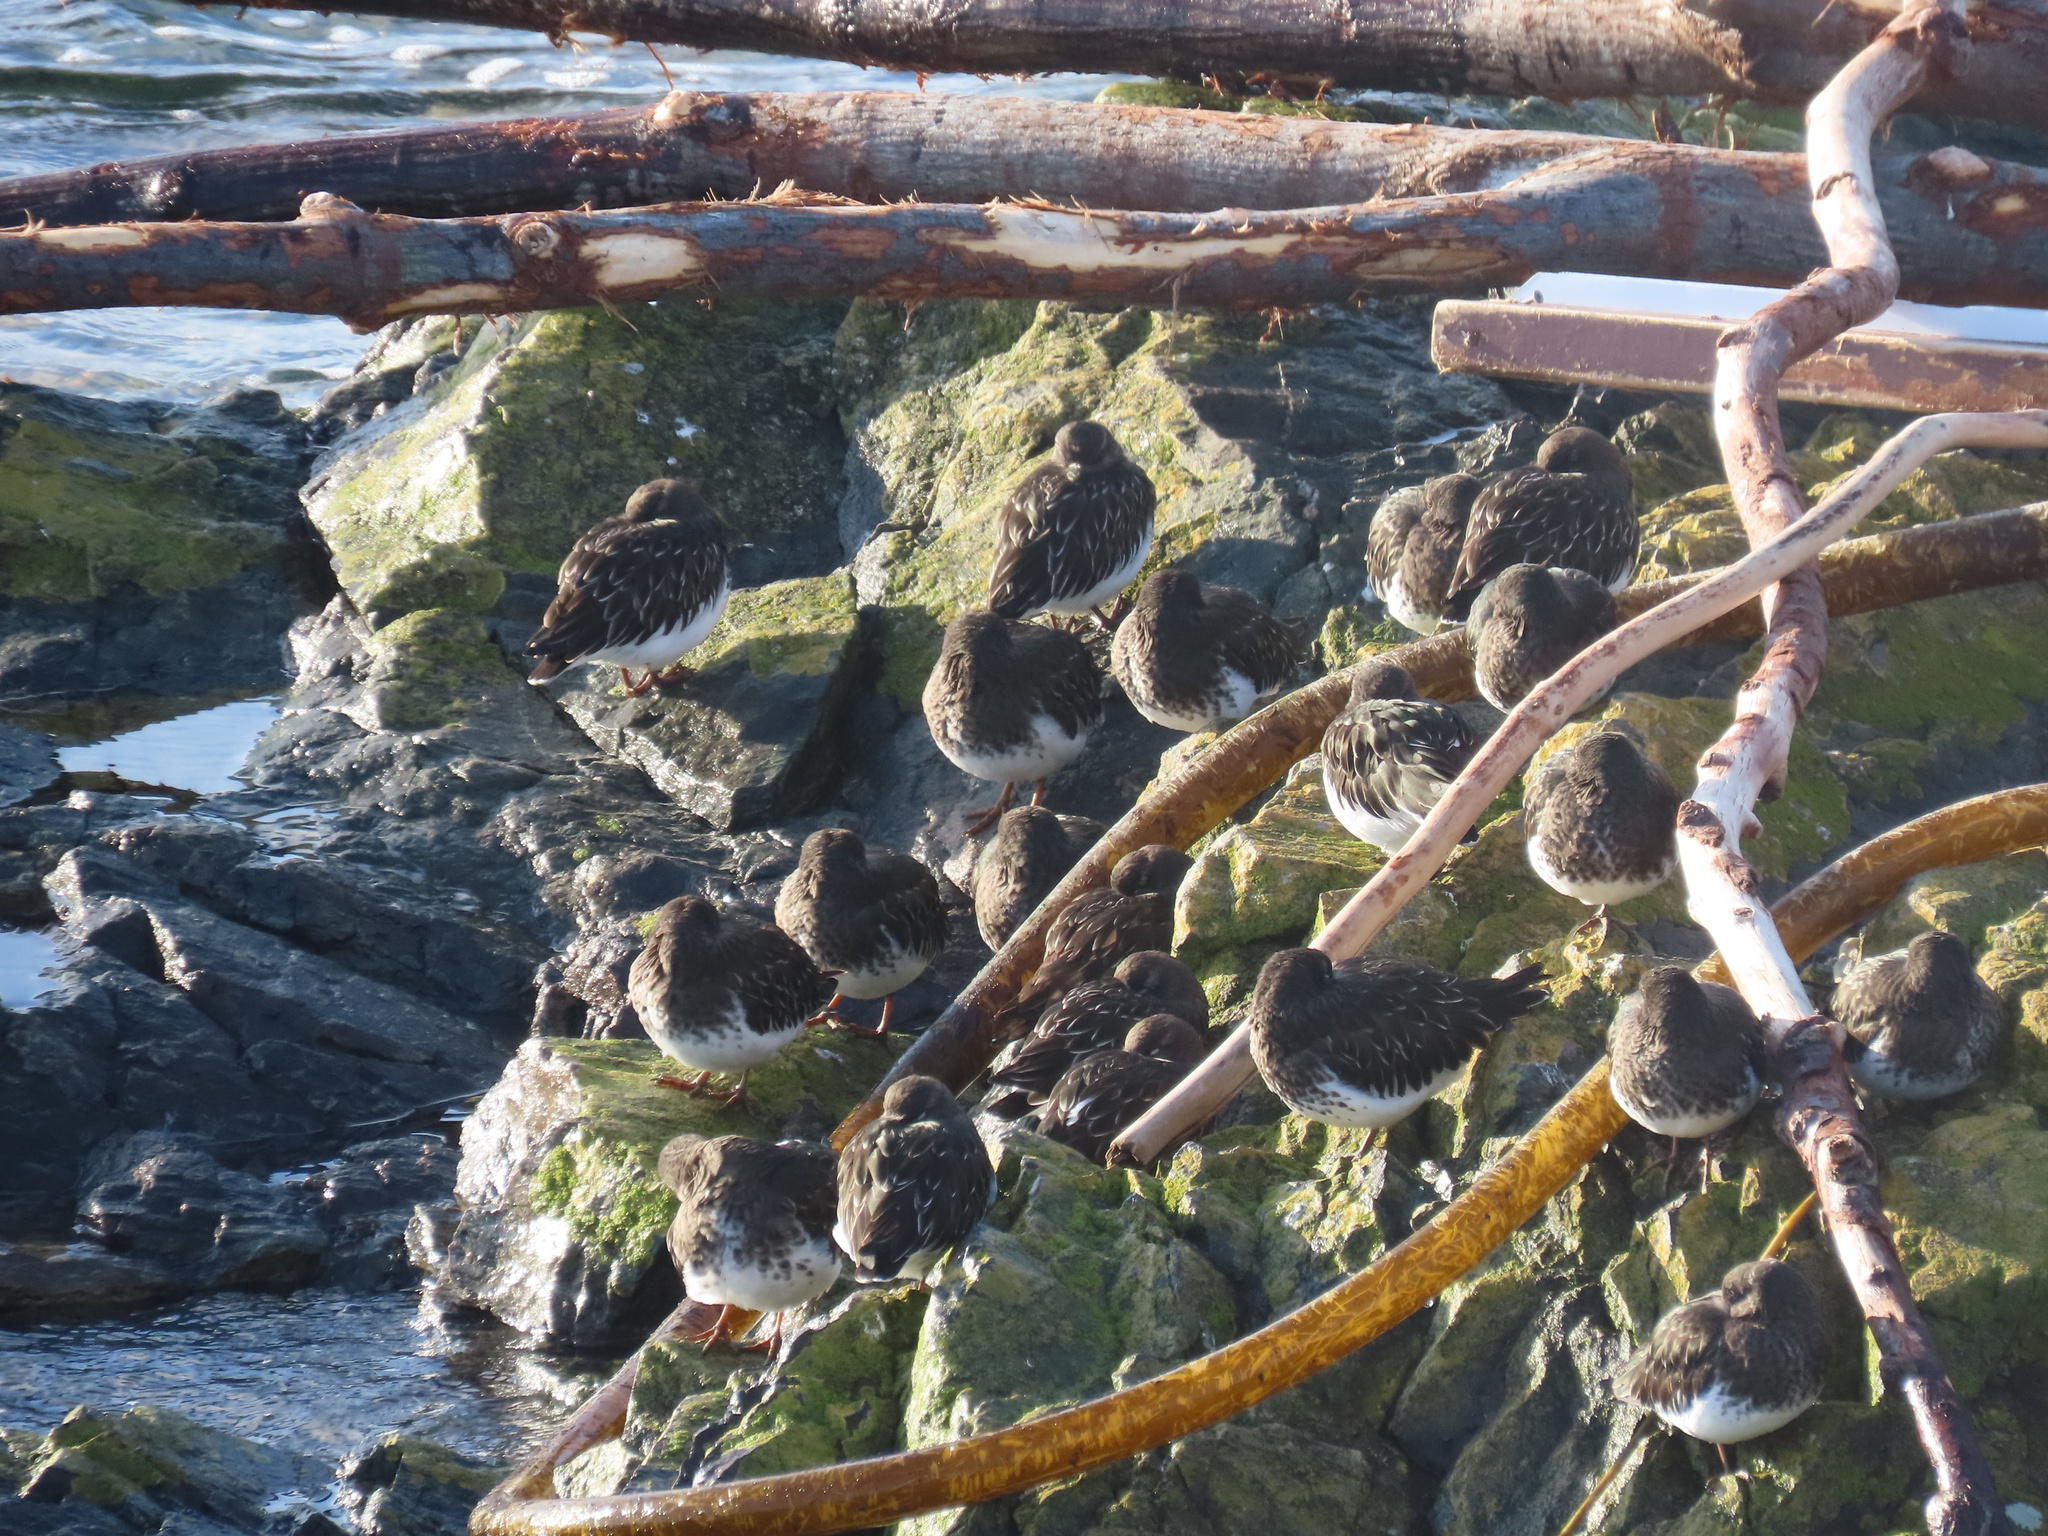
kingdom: Animalia
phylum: Chordata
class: Aves
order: Charadriiformes
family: Scolopacidae
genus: Arenaria
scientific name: Arenaria melanocephala
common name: Black turnstone
